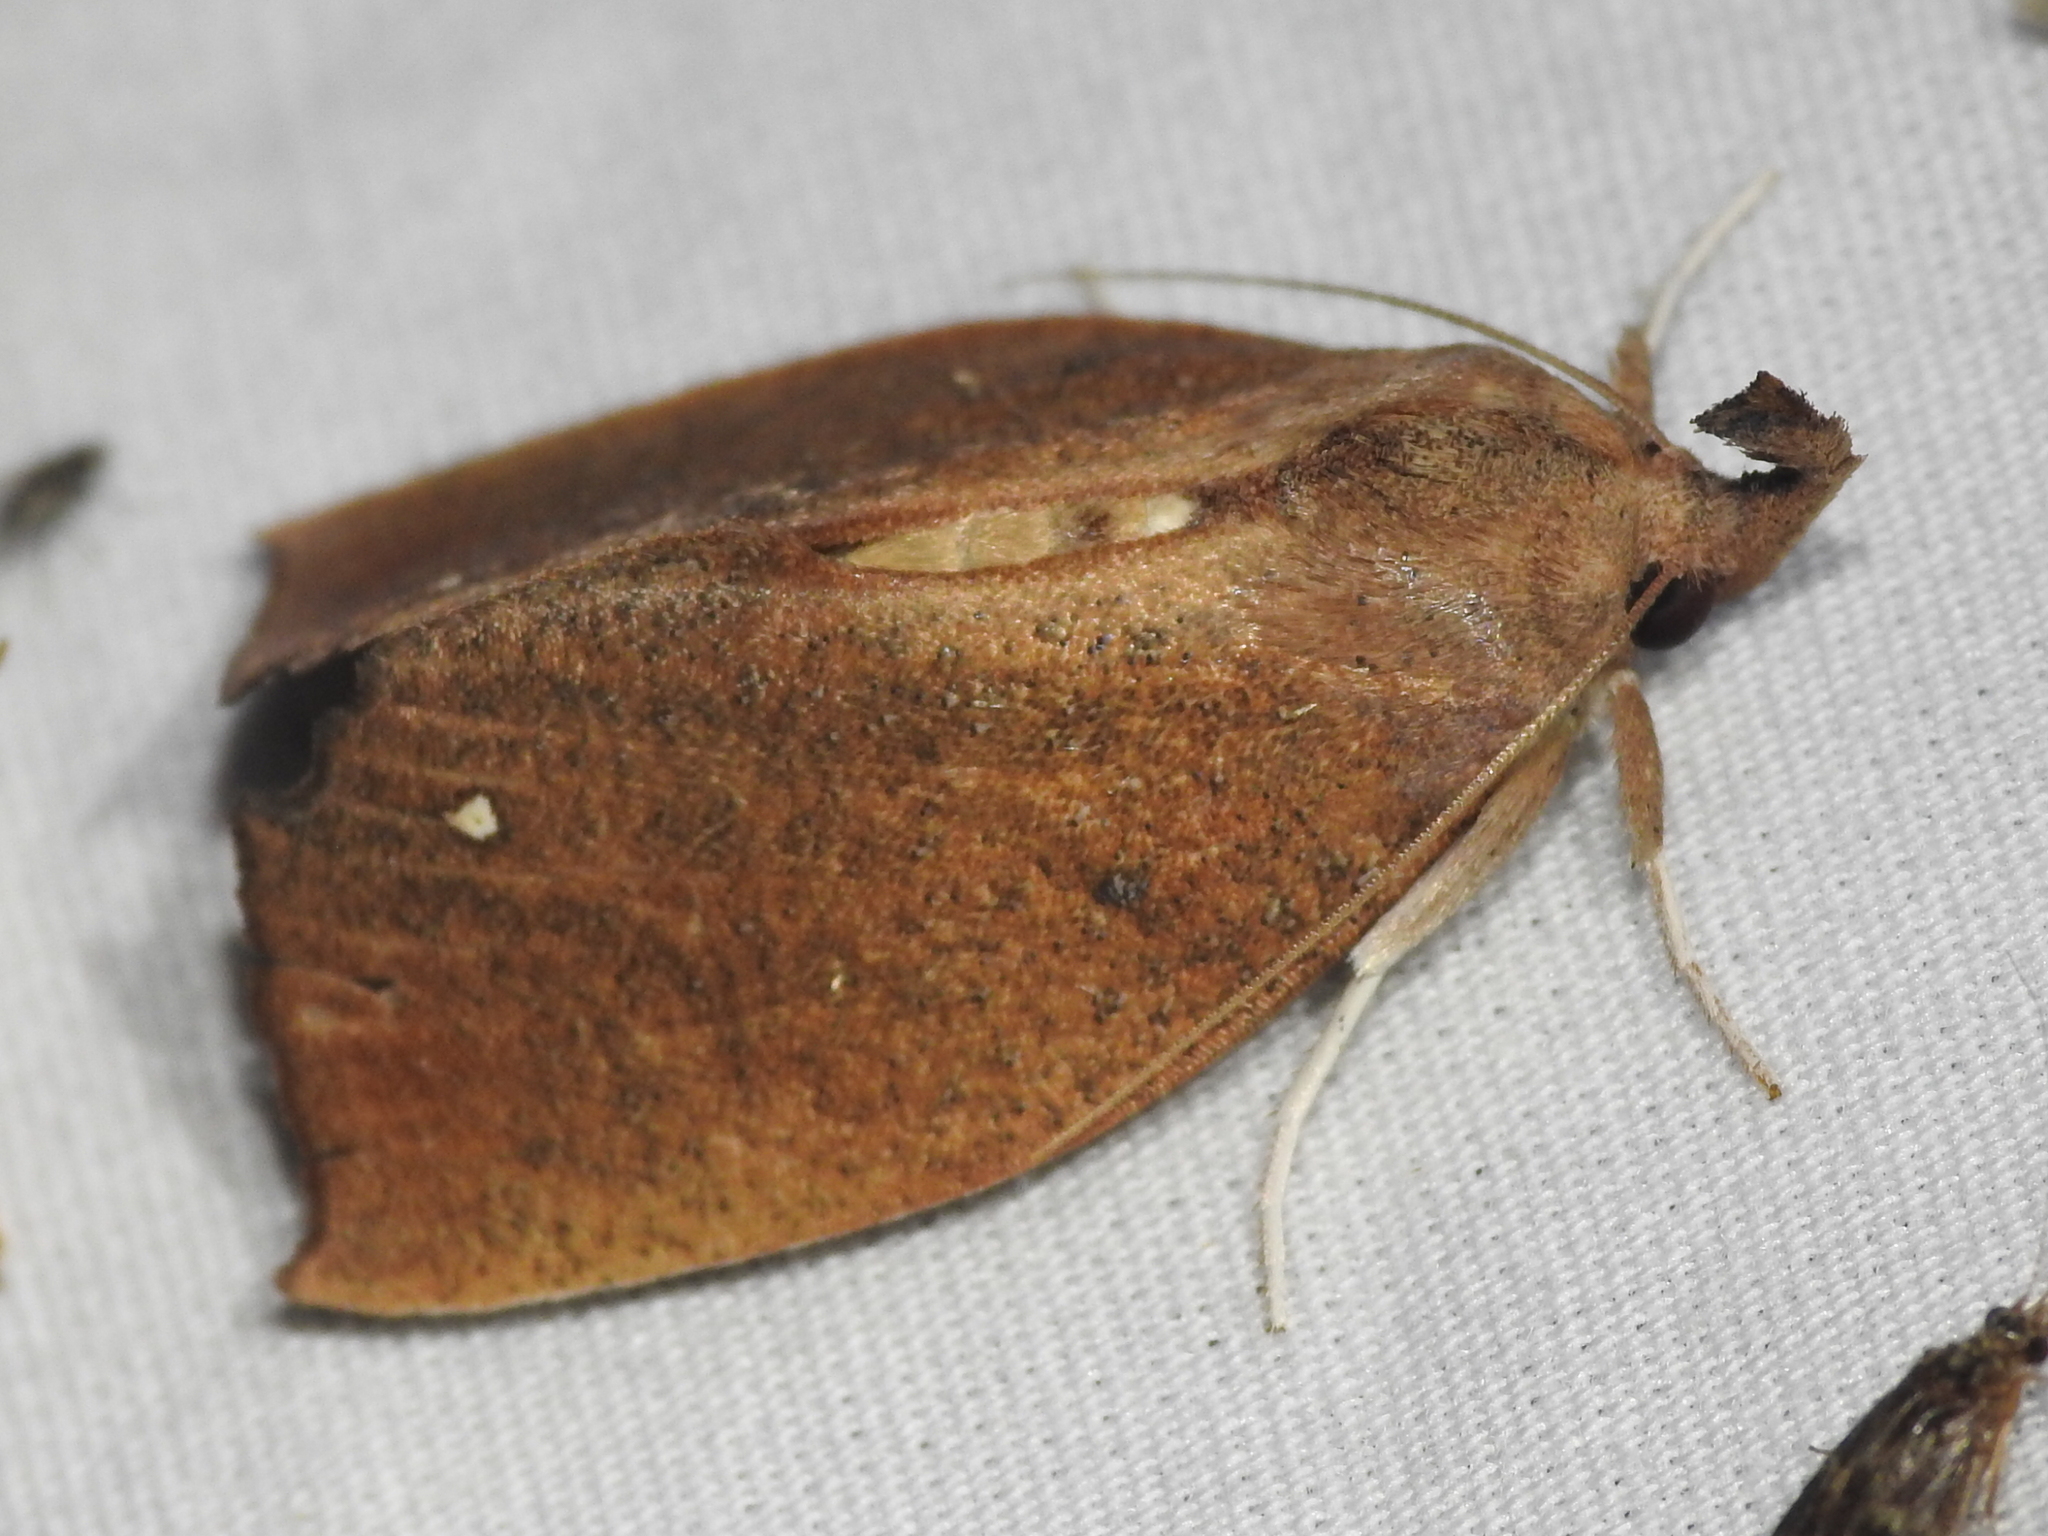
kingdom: Animalia
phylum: Arthropoda
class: Insecta
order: Lepidoptera
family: Erebidae
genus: Goniapteryx
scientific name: Goniapteryx servia
